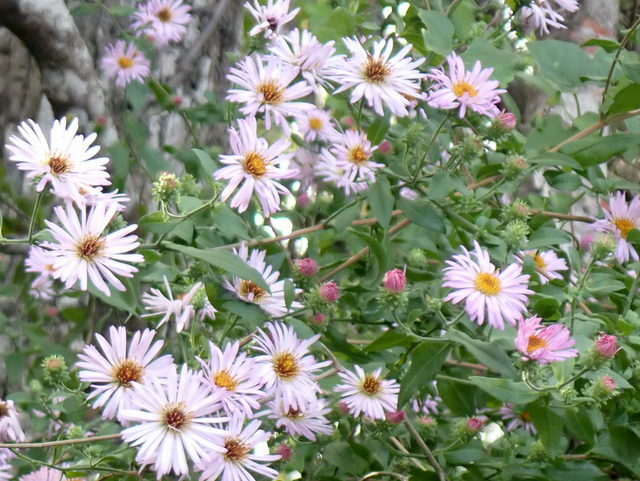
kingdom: Plantae
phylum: Tracheophyta
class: Magnoliopsida
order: Asterales
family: Asteraceae
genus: Ampelaster
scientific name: Ampelaster carolinianus
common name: Climbing aster
